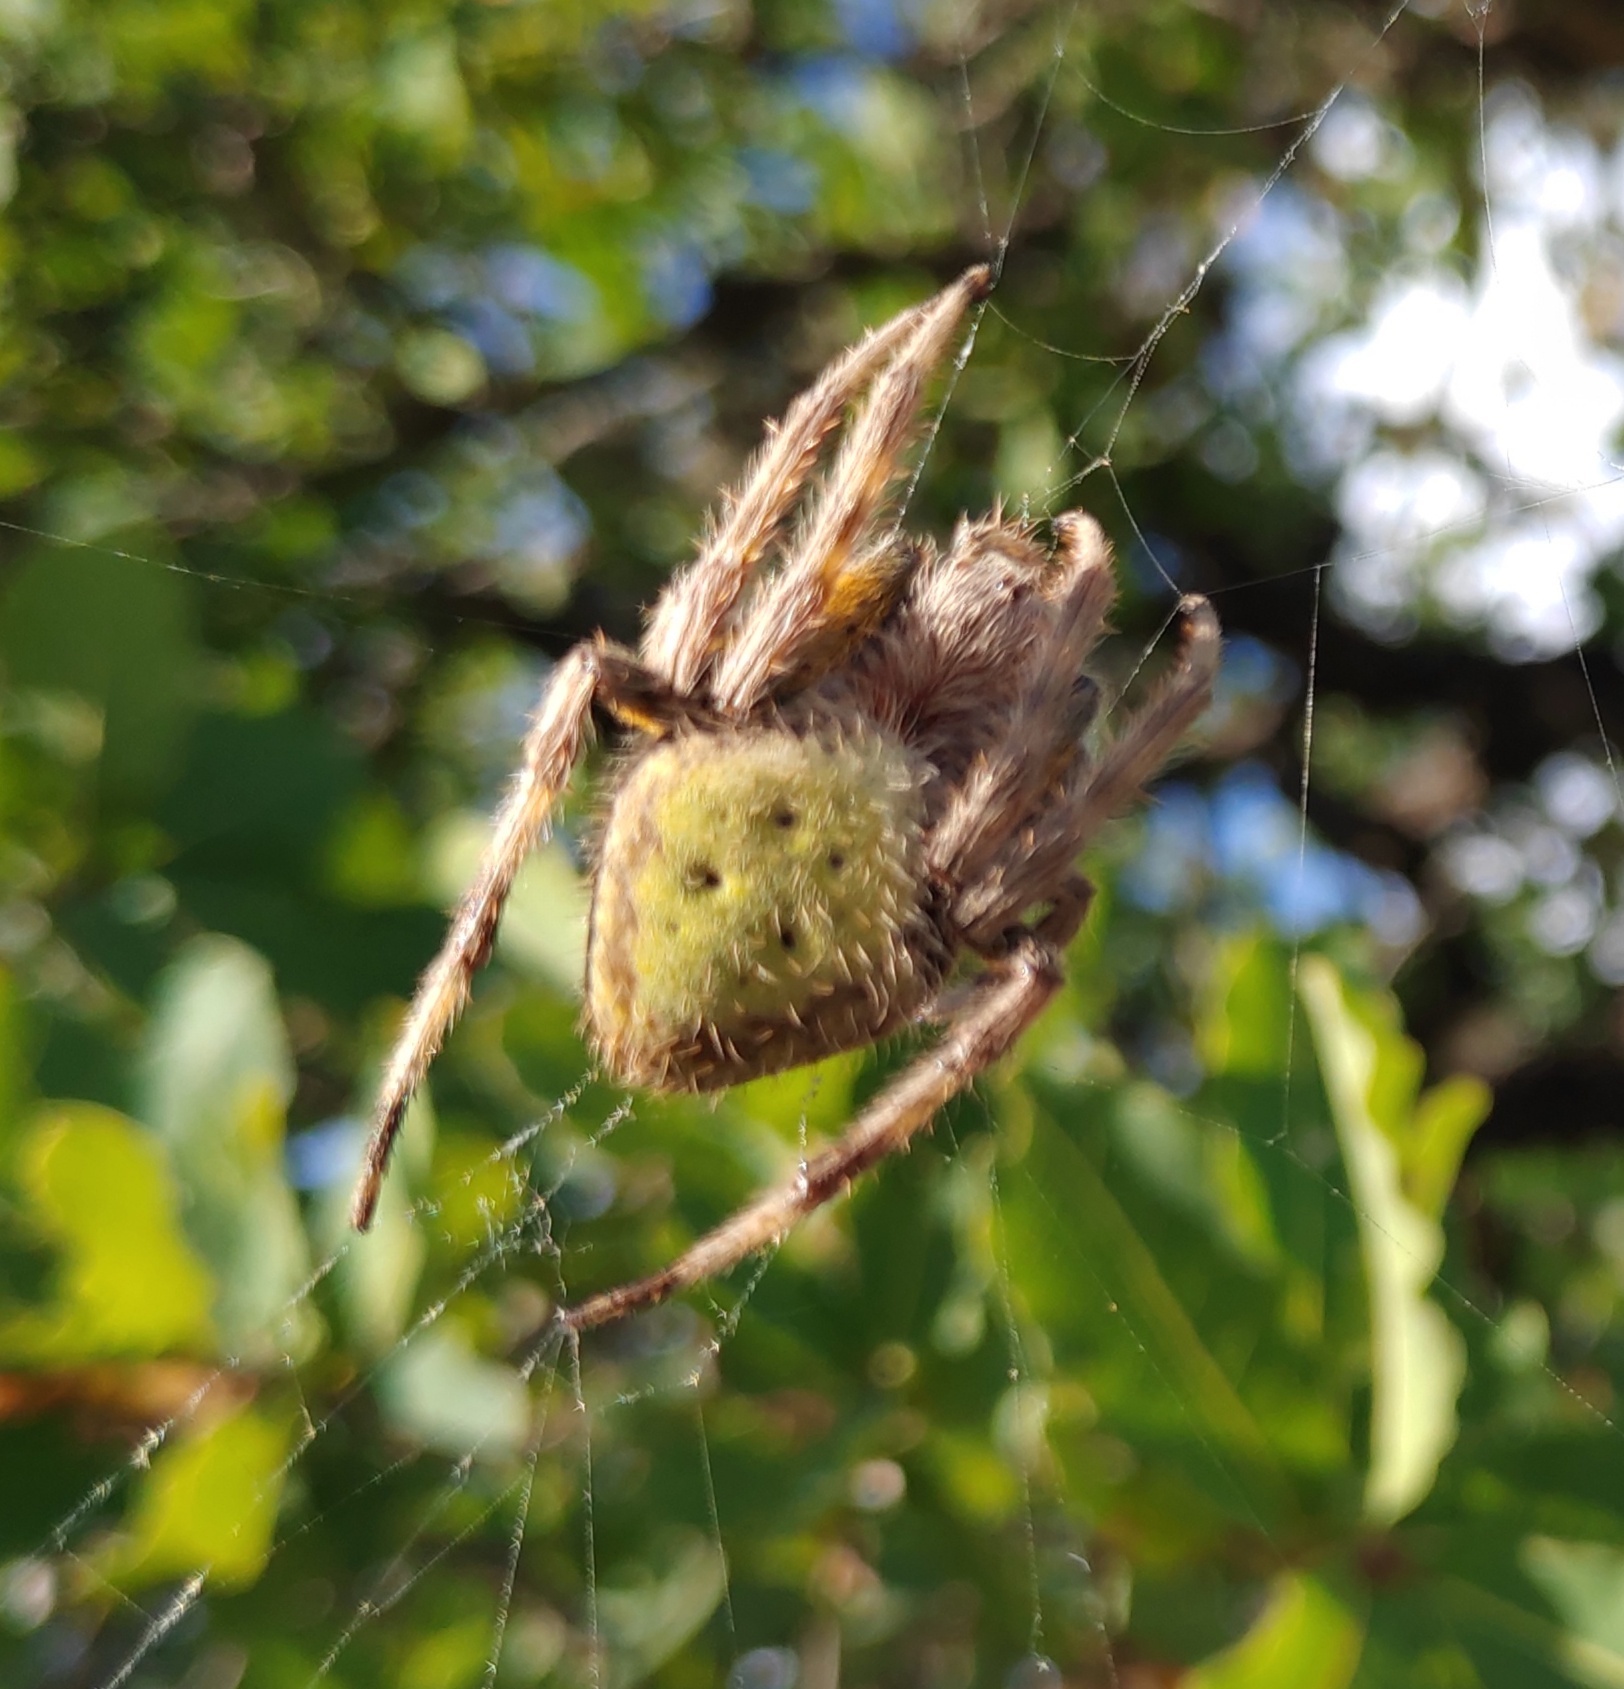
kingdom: Animalia
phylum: Arthropoda
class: Arachnida
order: Araneae
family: Araneidae
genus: Eriophora
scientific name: Eriophora ravilla
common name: Orb weavers
